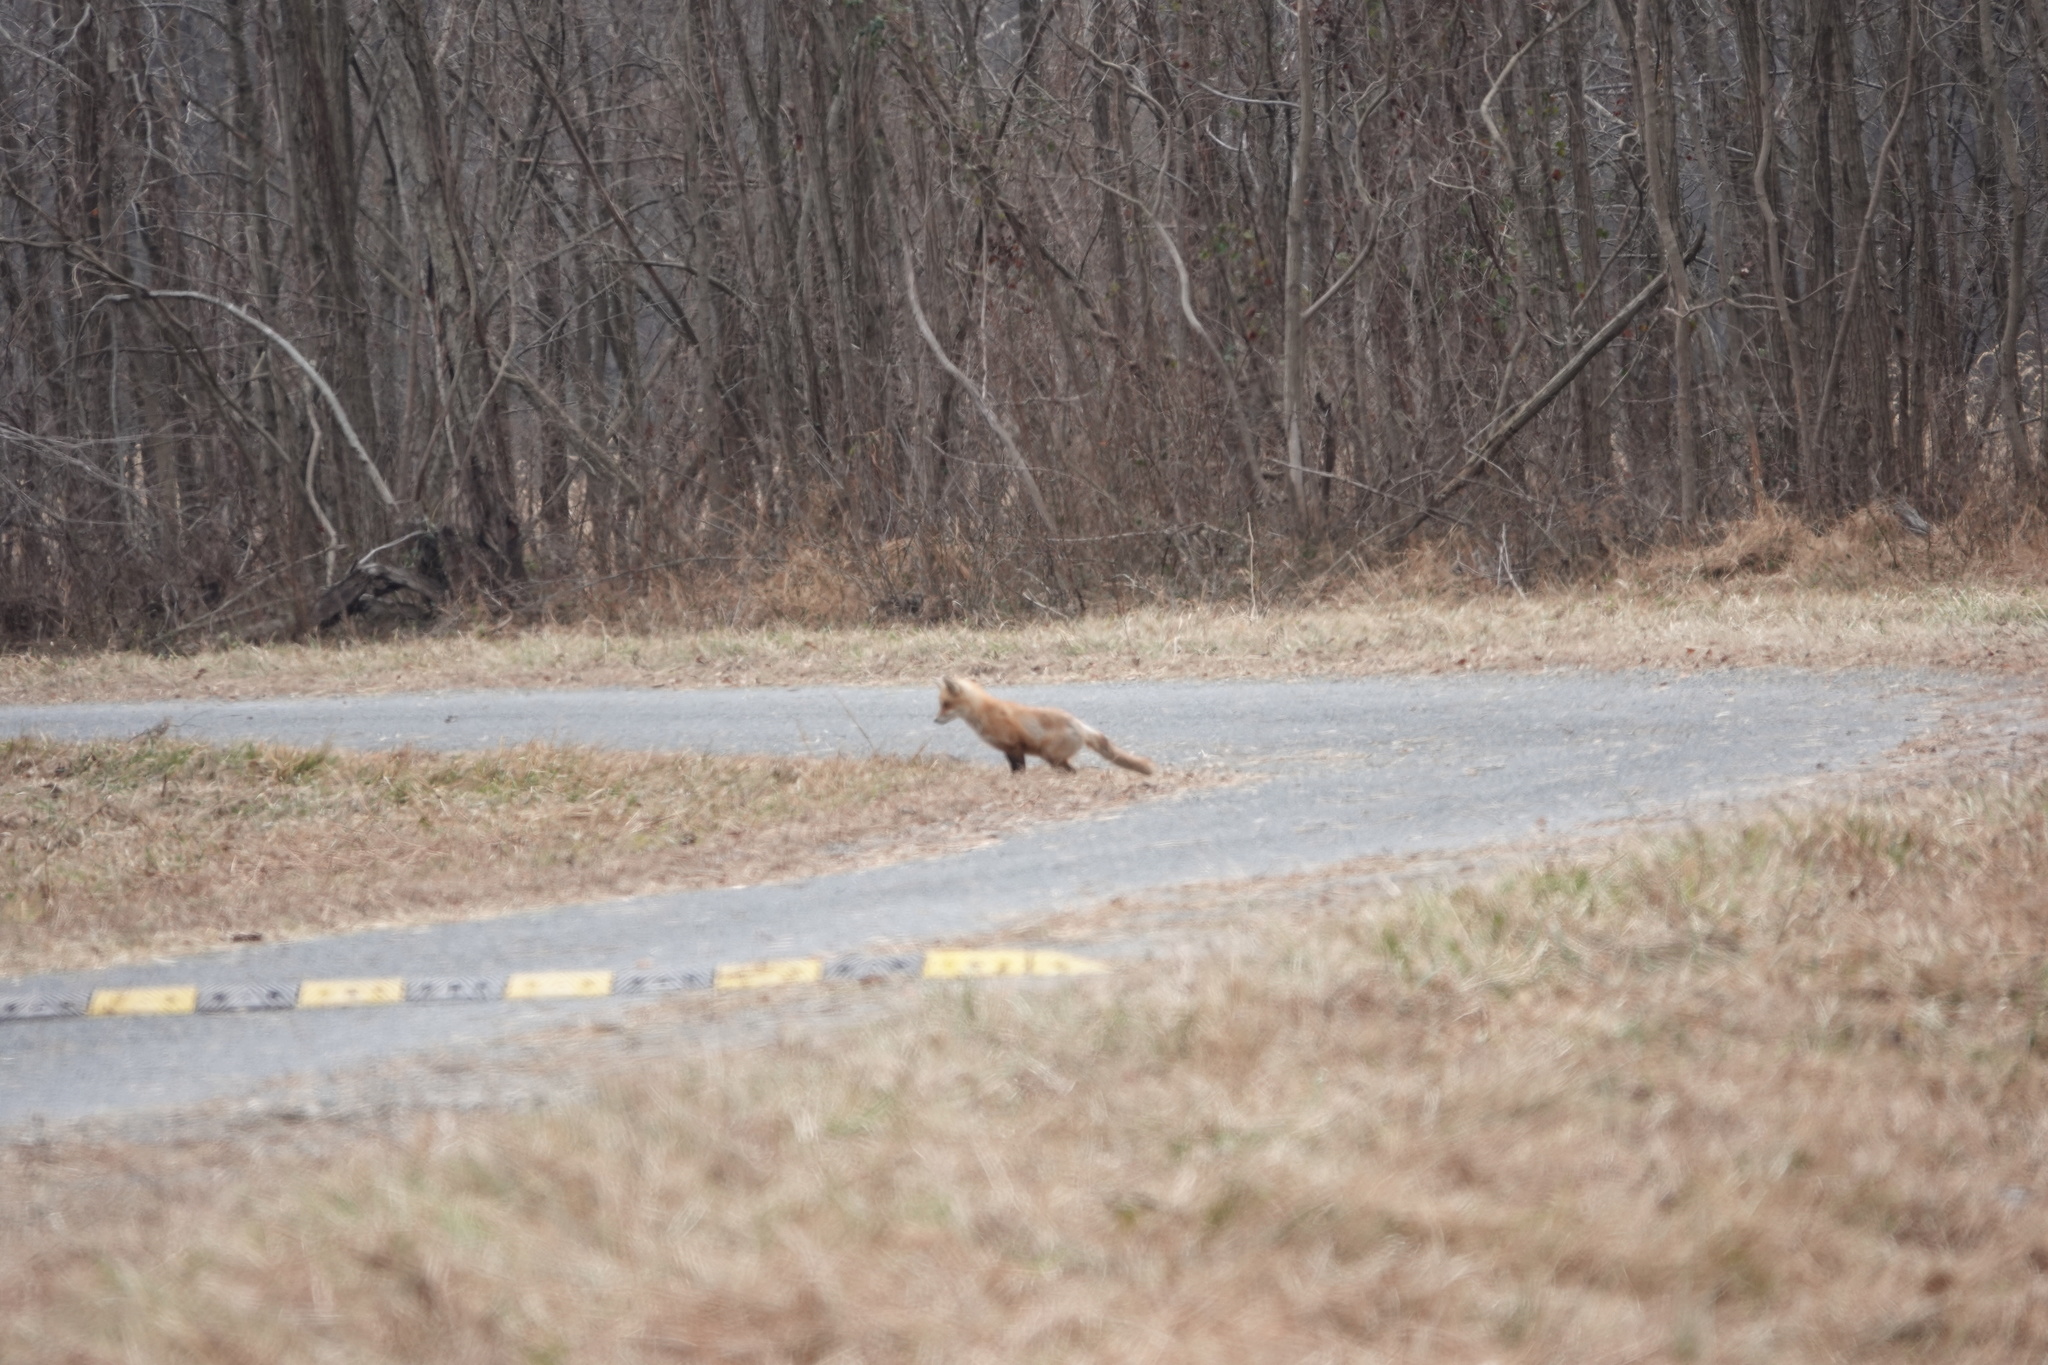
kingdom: Animalia
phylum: Chordata
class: Mammalia
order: Carnivora
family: Canidae
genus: Vulpes
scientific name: Vulpes vulpes
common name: Red fox
